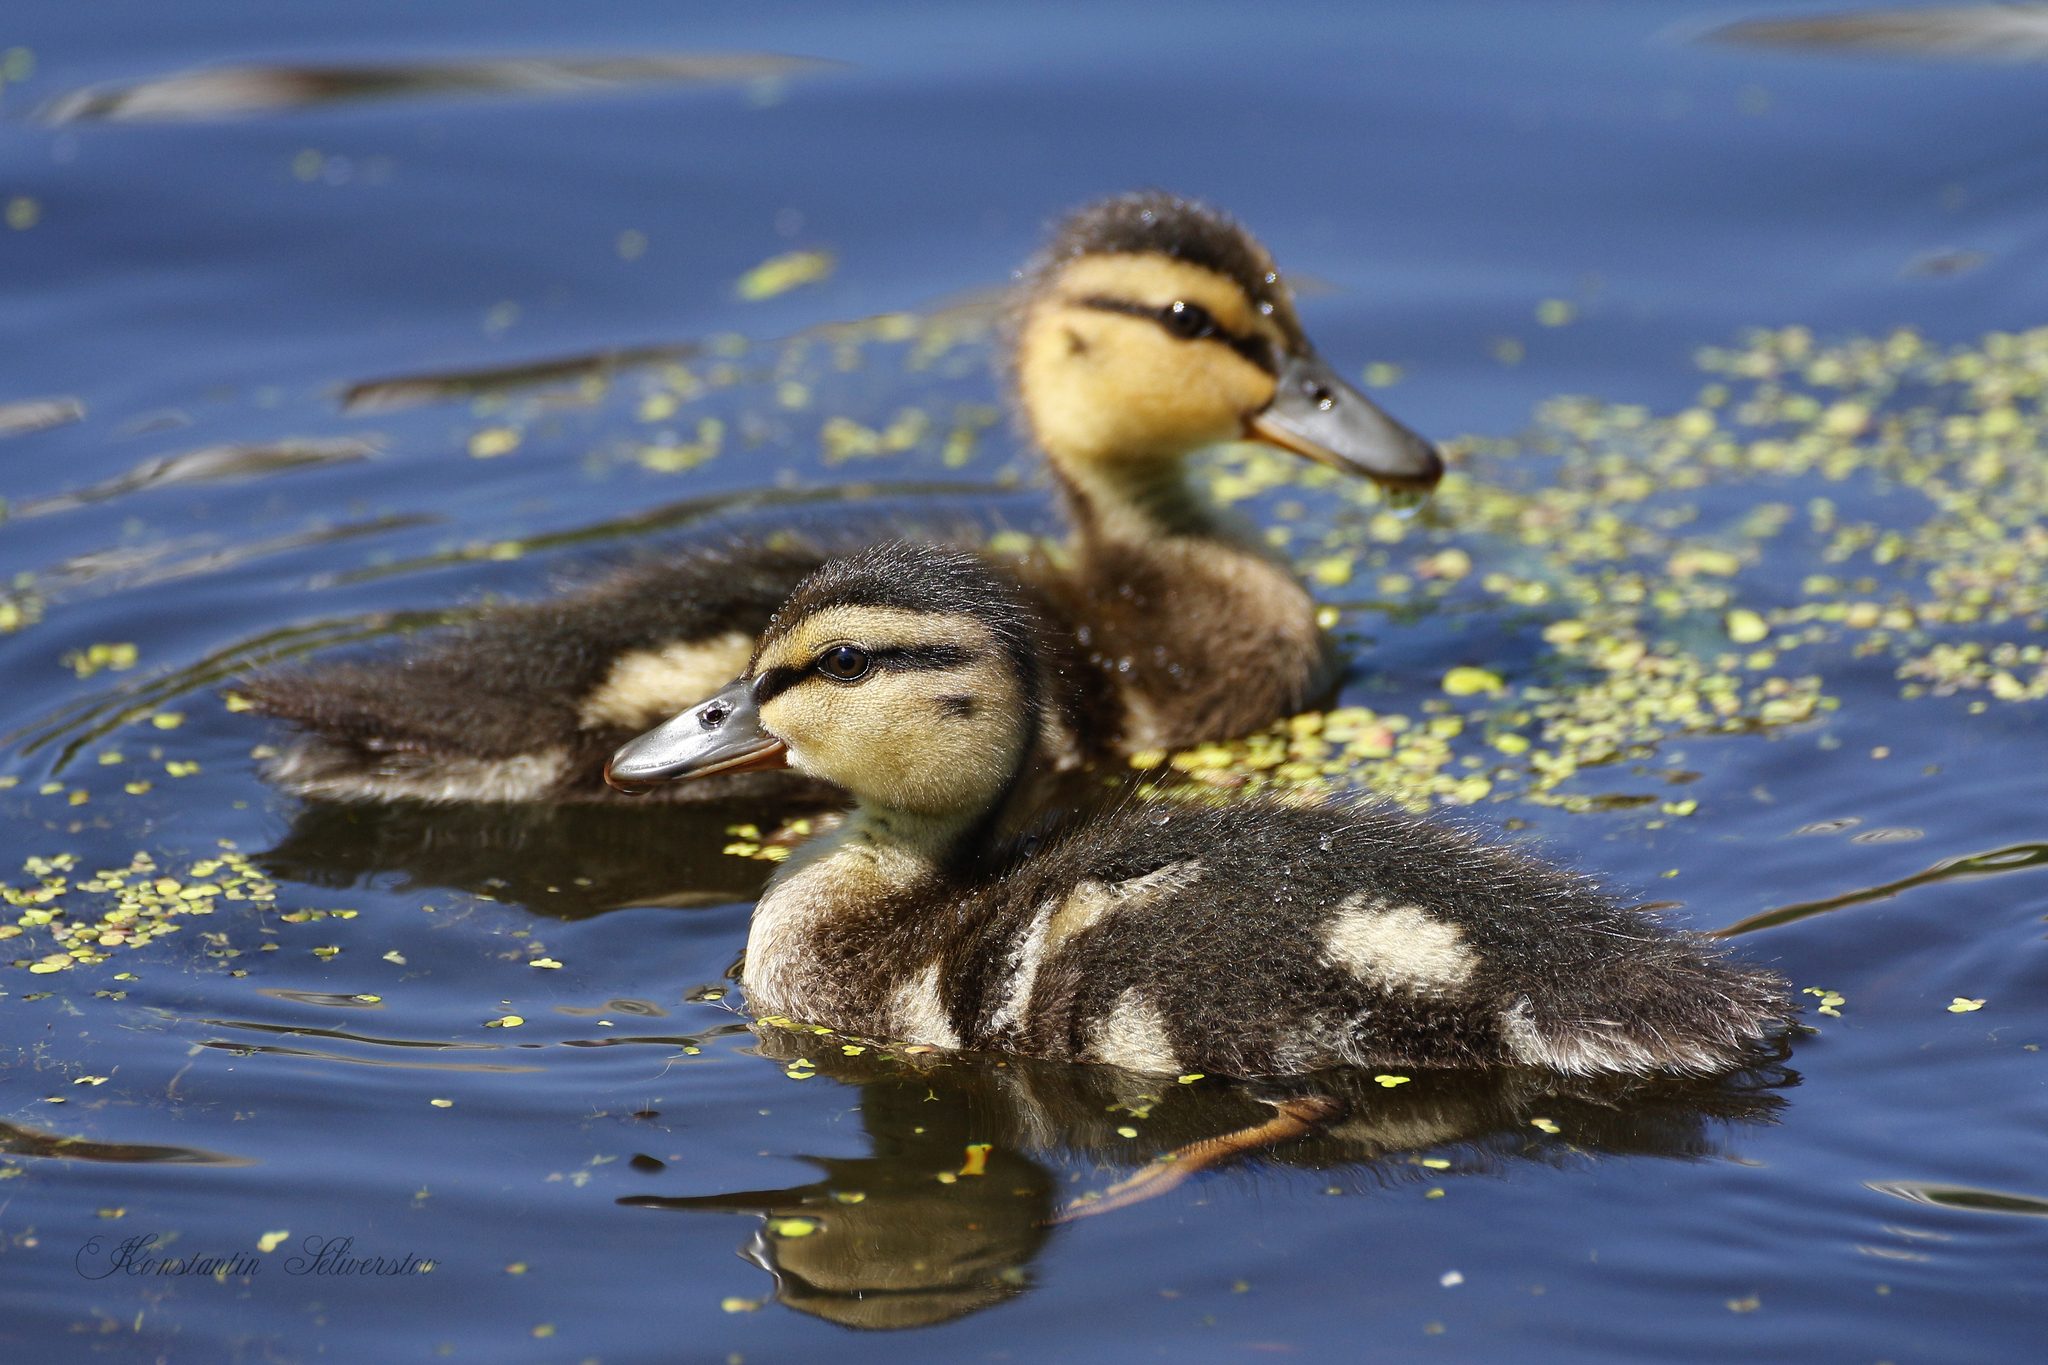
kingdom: Animalia
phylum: Chordata
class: Aves
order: Anseriformes
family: Anatidae
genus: Anas
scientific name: Anas platyrhynchos
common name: Mallard
